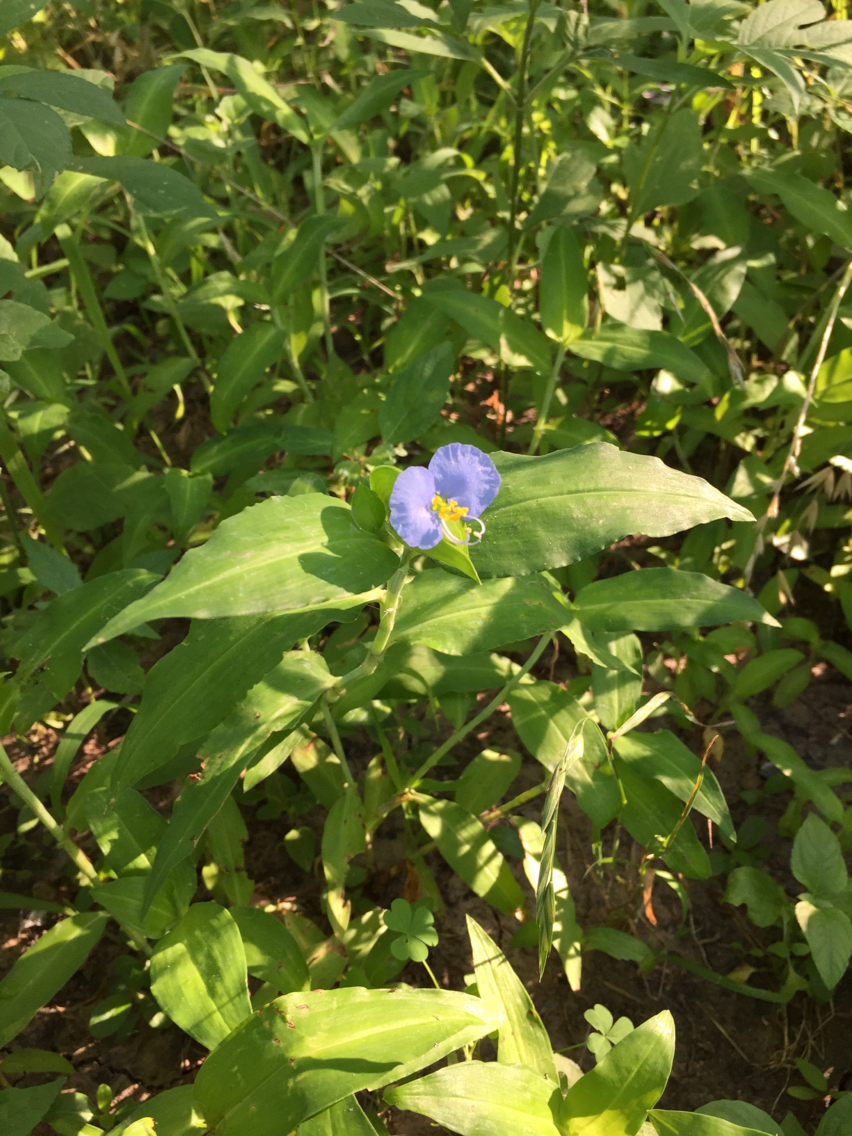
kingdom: Plantae
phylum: Tracheophyta
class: Liliopsida
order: Commelinales
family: Commelinaceae
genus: Commelina
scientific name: Commelina erecta
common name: Blousel blommetjie
